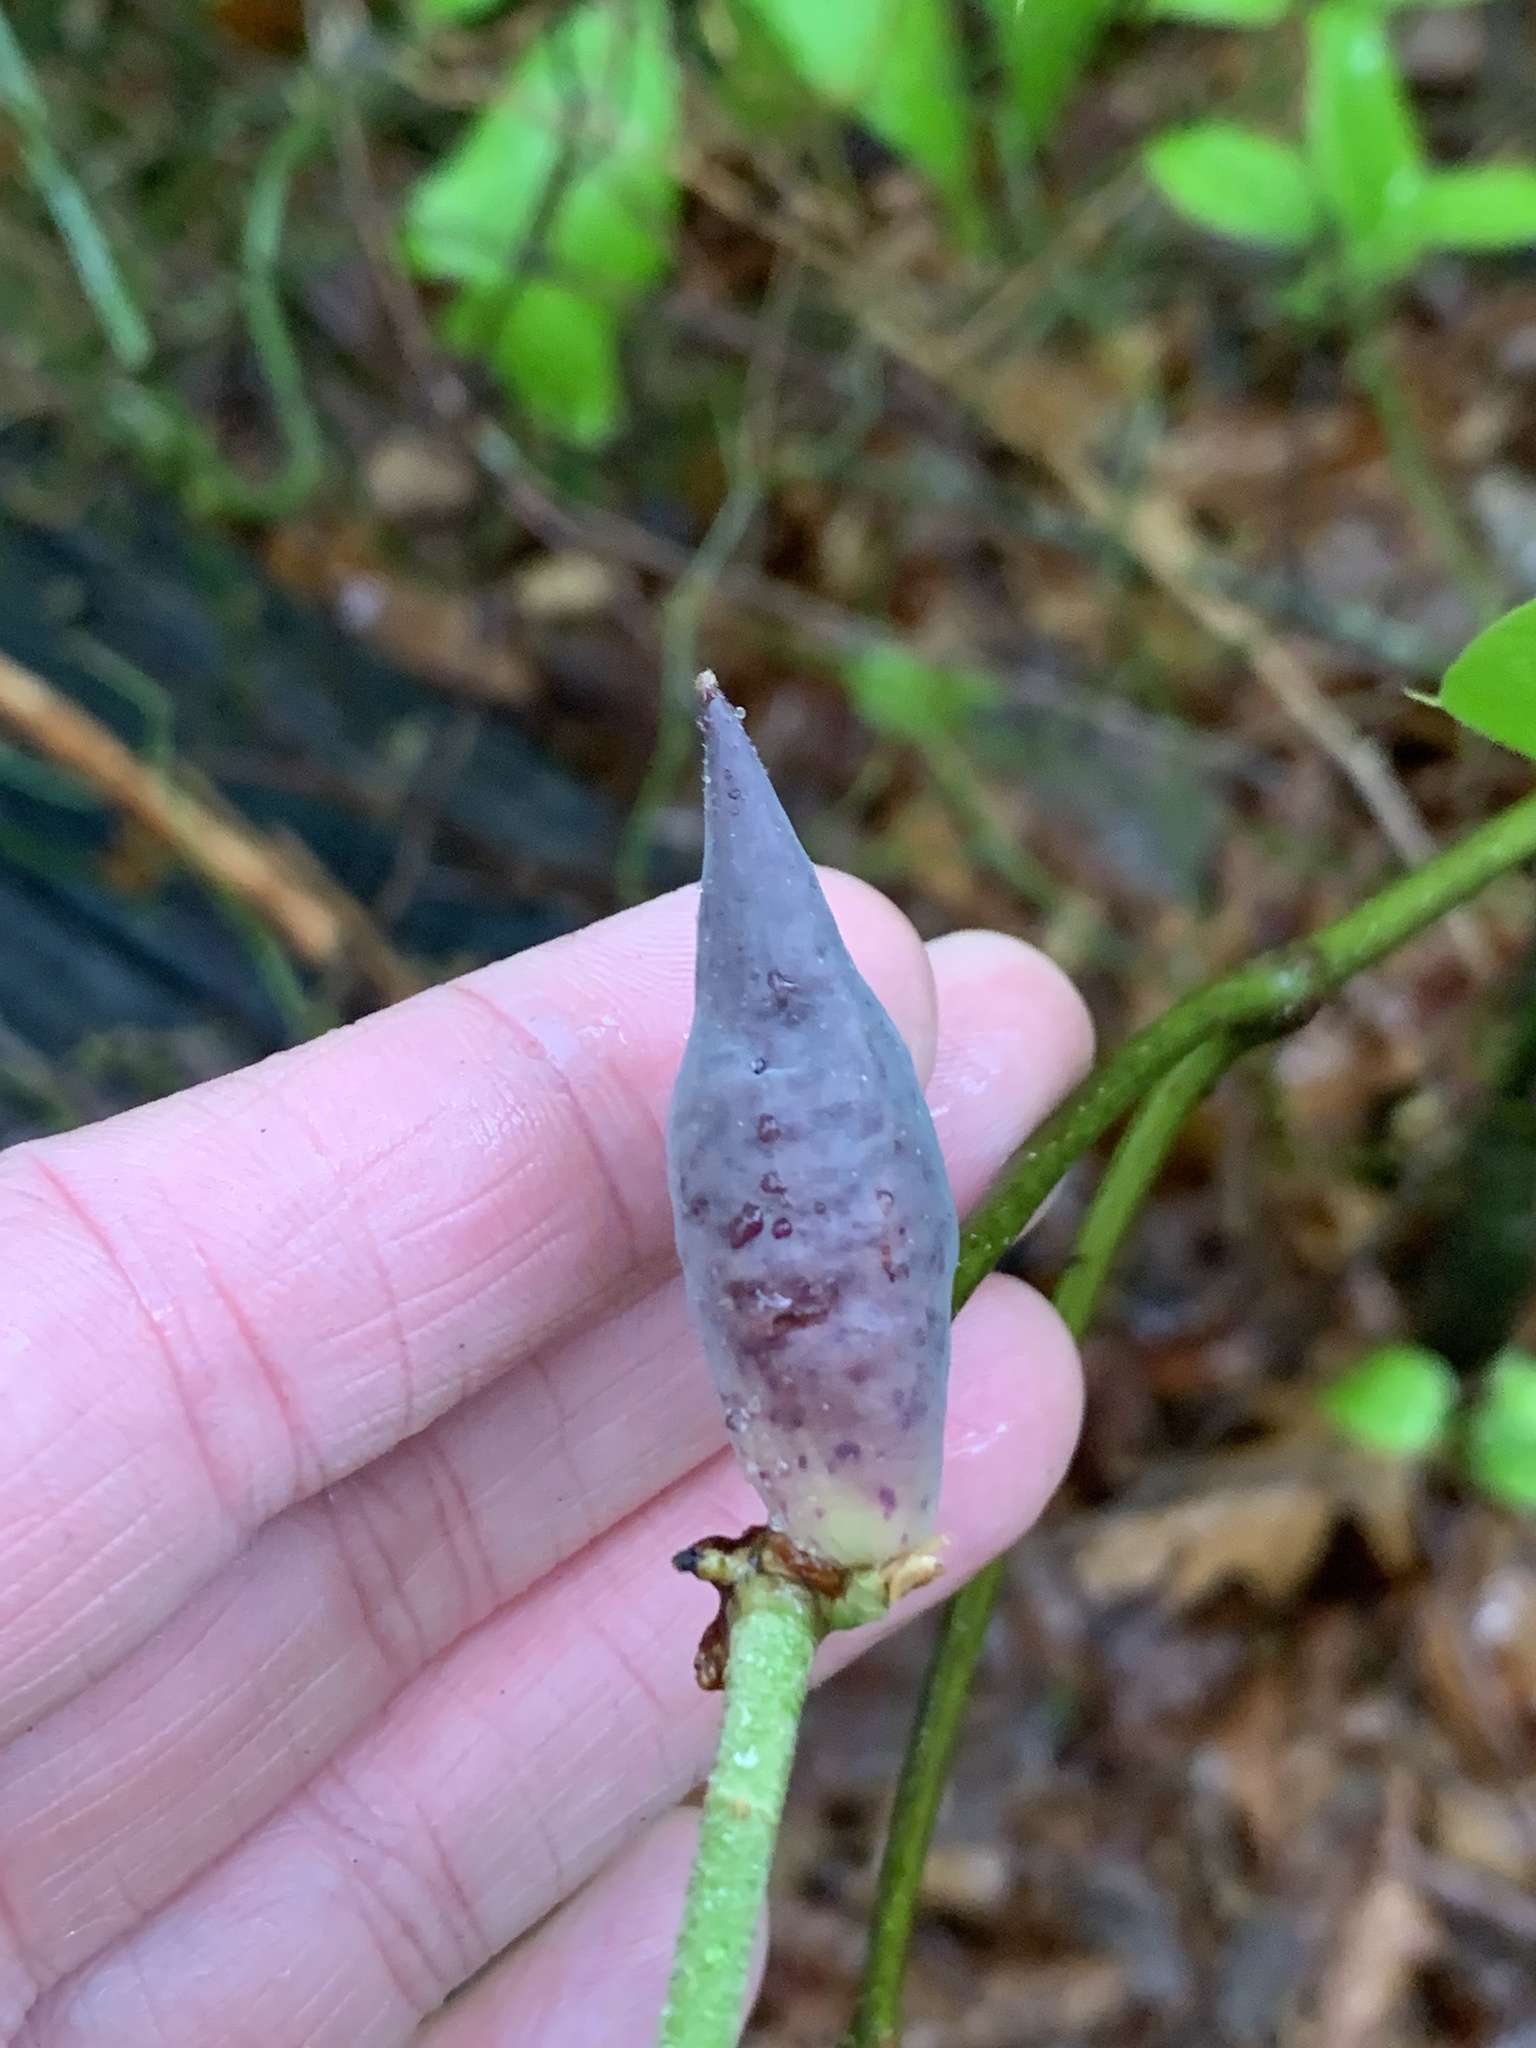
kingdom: Animalia
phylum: Arthropoda
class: Insecta
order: Hymenoptera
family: Cynipidae
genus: Amphibolips
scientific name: Amphibolips
